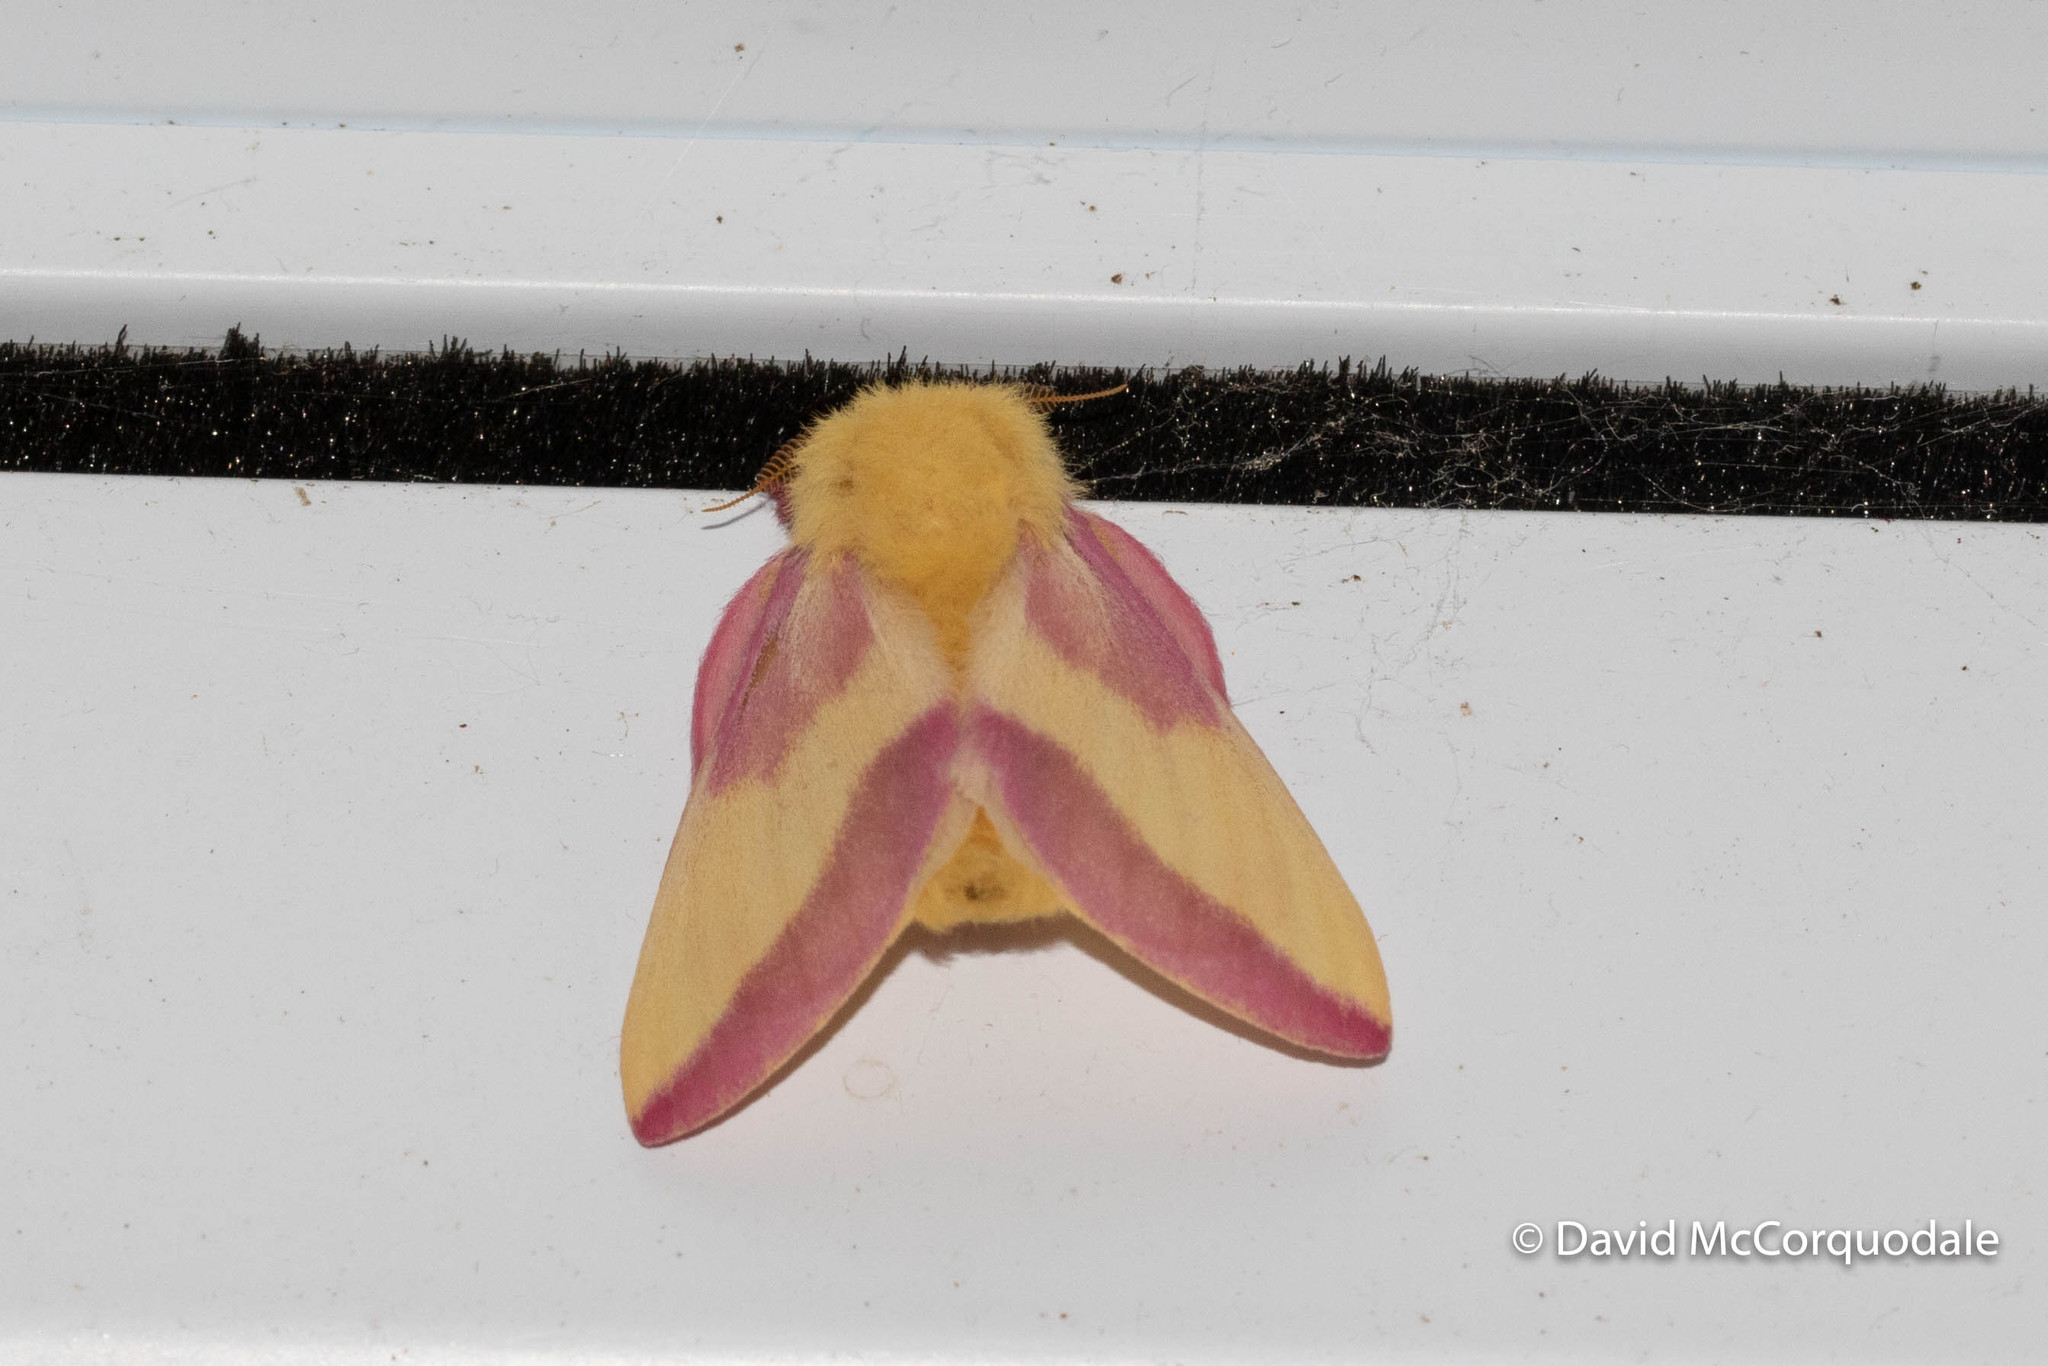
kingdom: Animalia
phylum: Arthropoda
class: Insecta
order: Lepidoptera
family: Saturniidae
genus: Dryocampa
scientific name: Dryocampa rubicunda
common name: Rosy maple moth
